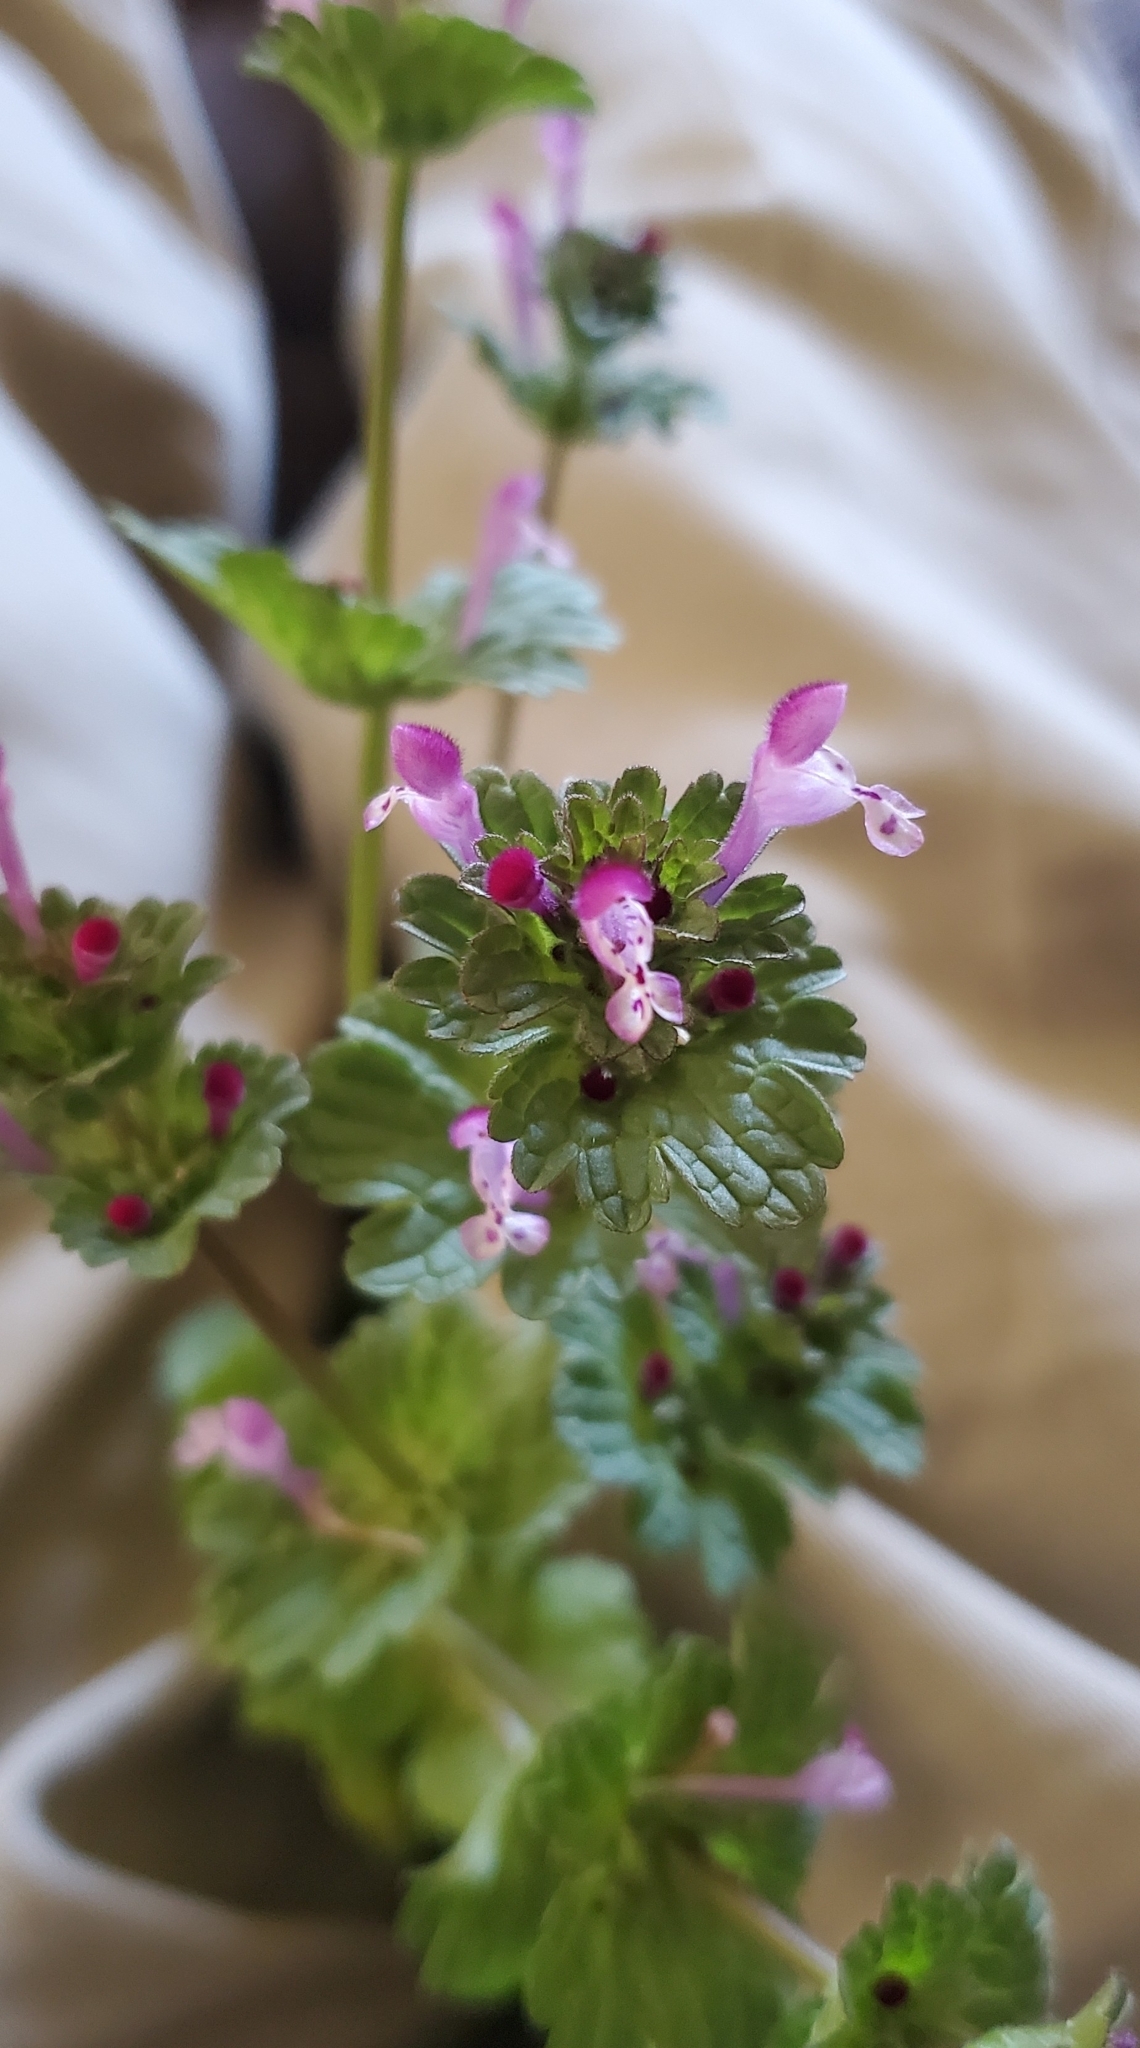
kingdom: Plantae
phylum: Tracheophyta
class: Magnoliopsida
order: Lamiales
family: Lamiaceae
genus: Lamium
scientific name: Lamium amplexicaule
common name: Henbit dead-nettle
